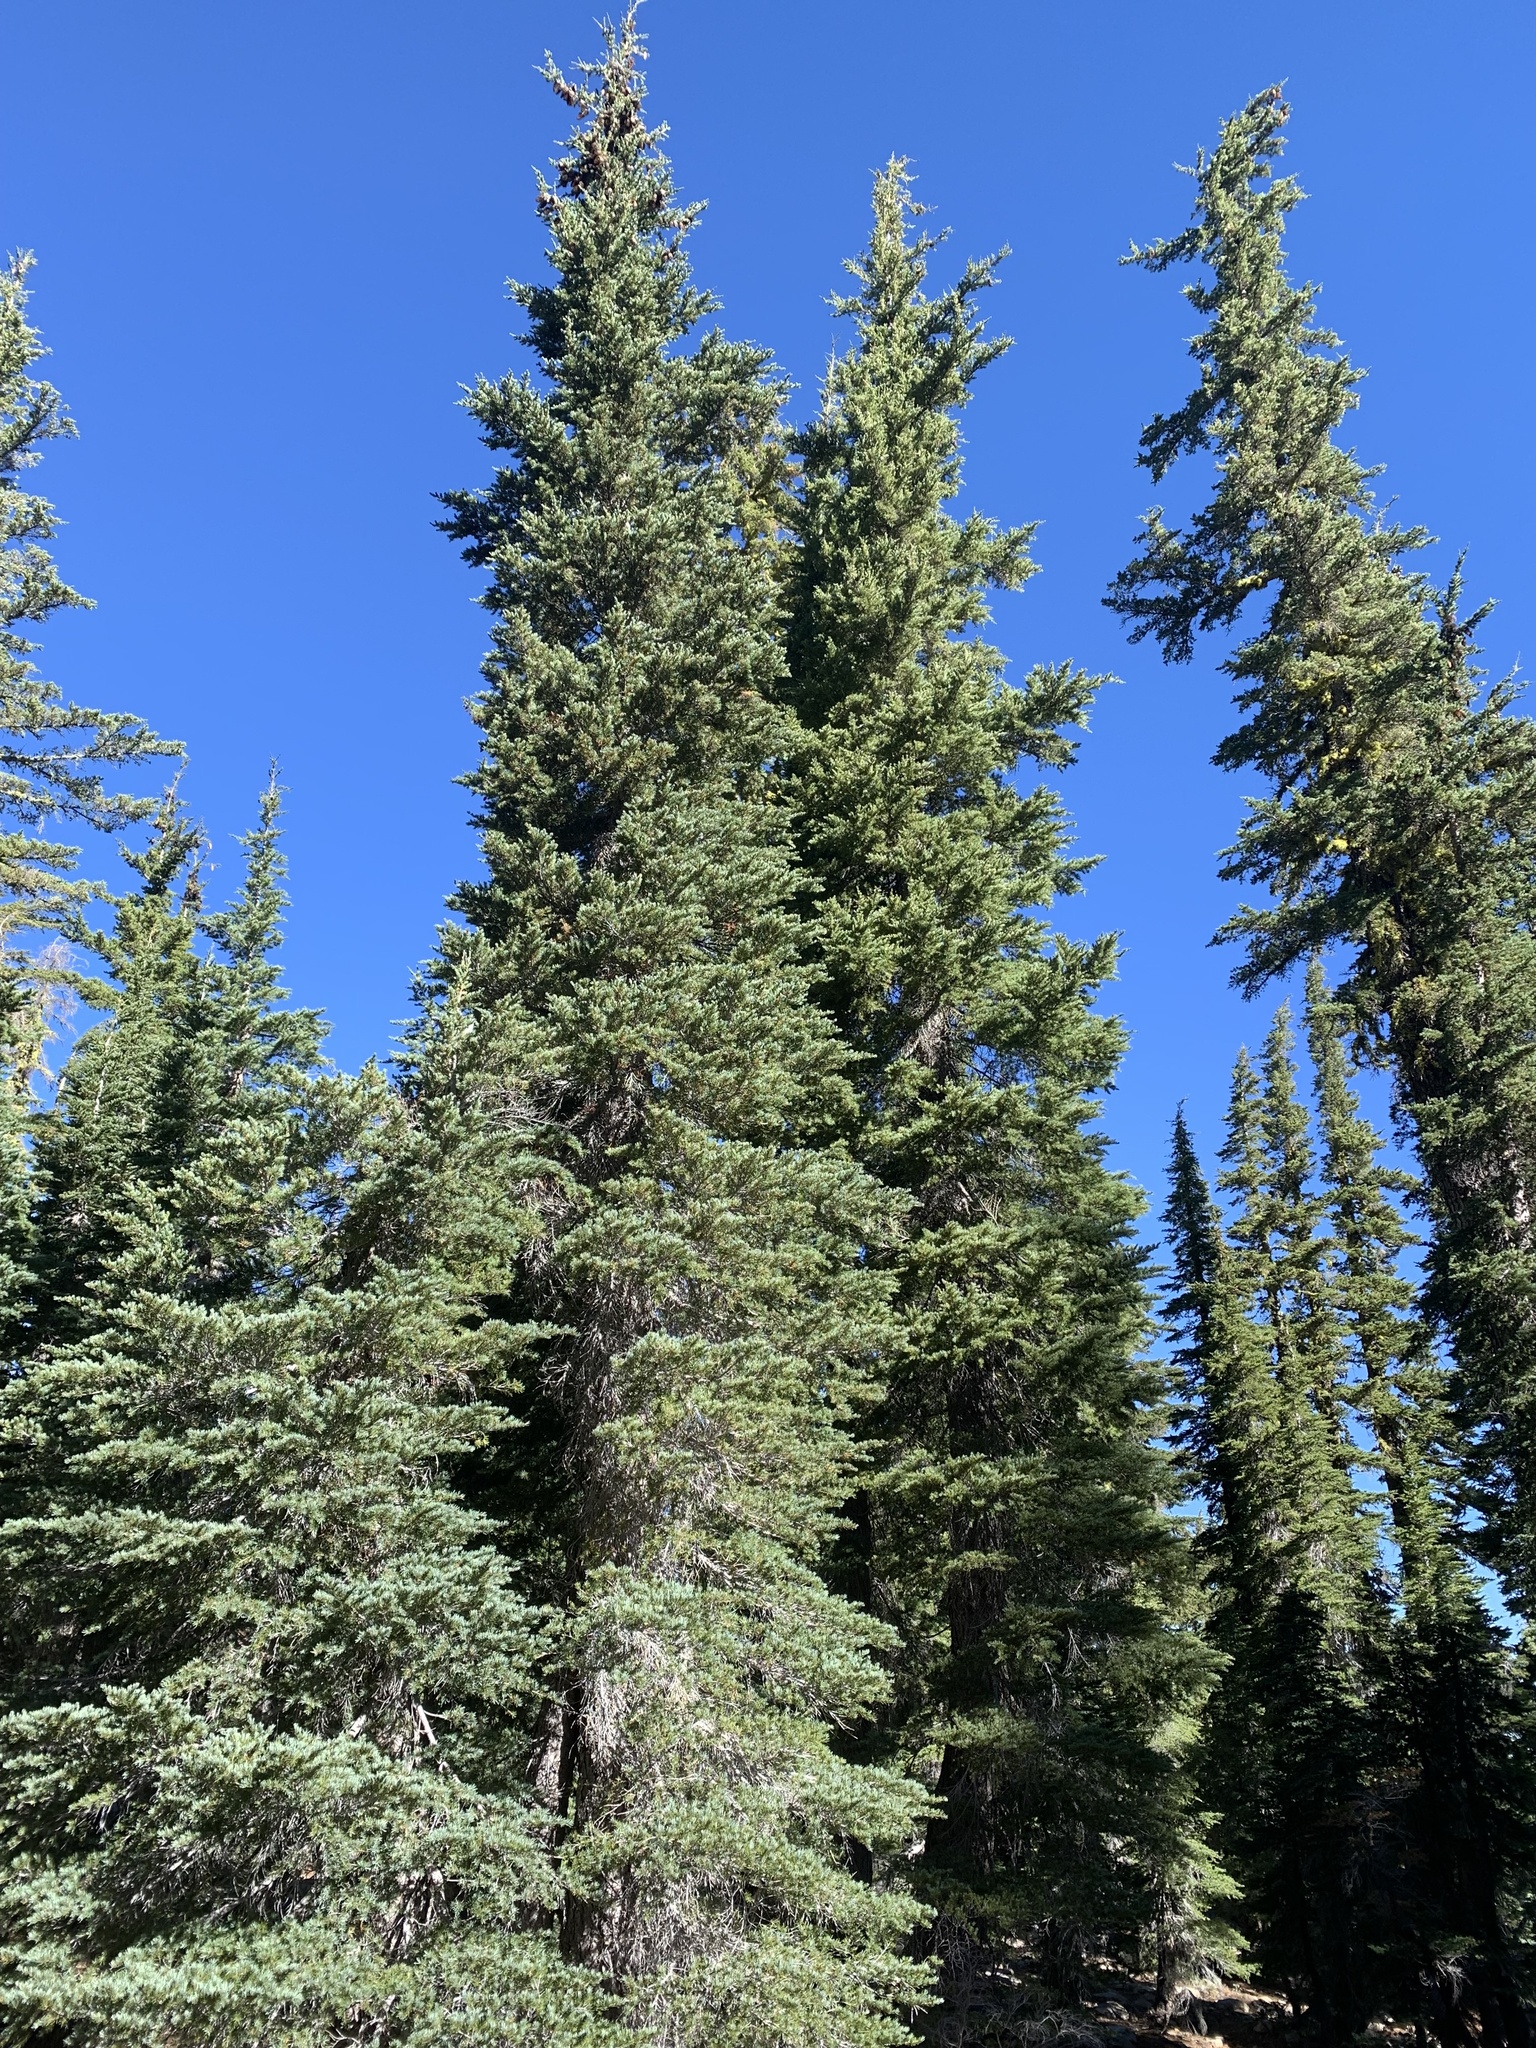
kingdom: Plantae
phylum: Tracheophyta
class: Pinopsida
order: Pinales
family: Pinaceae
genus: Tsuga
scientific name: Tsuga mertensiana
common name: Mountain hemlock
